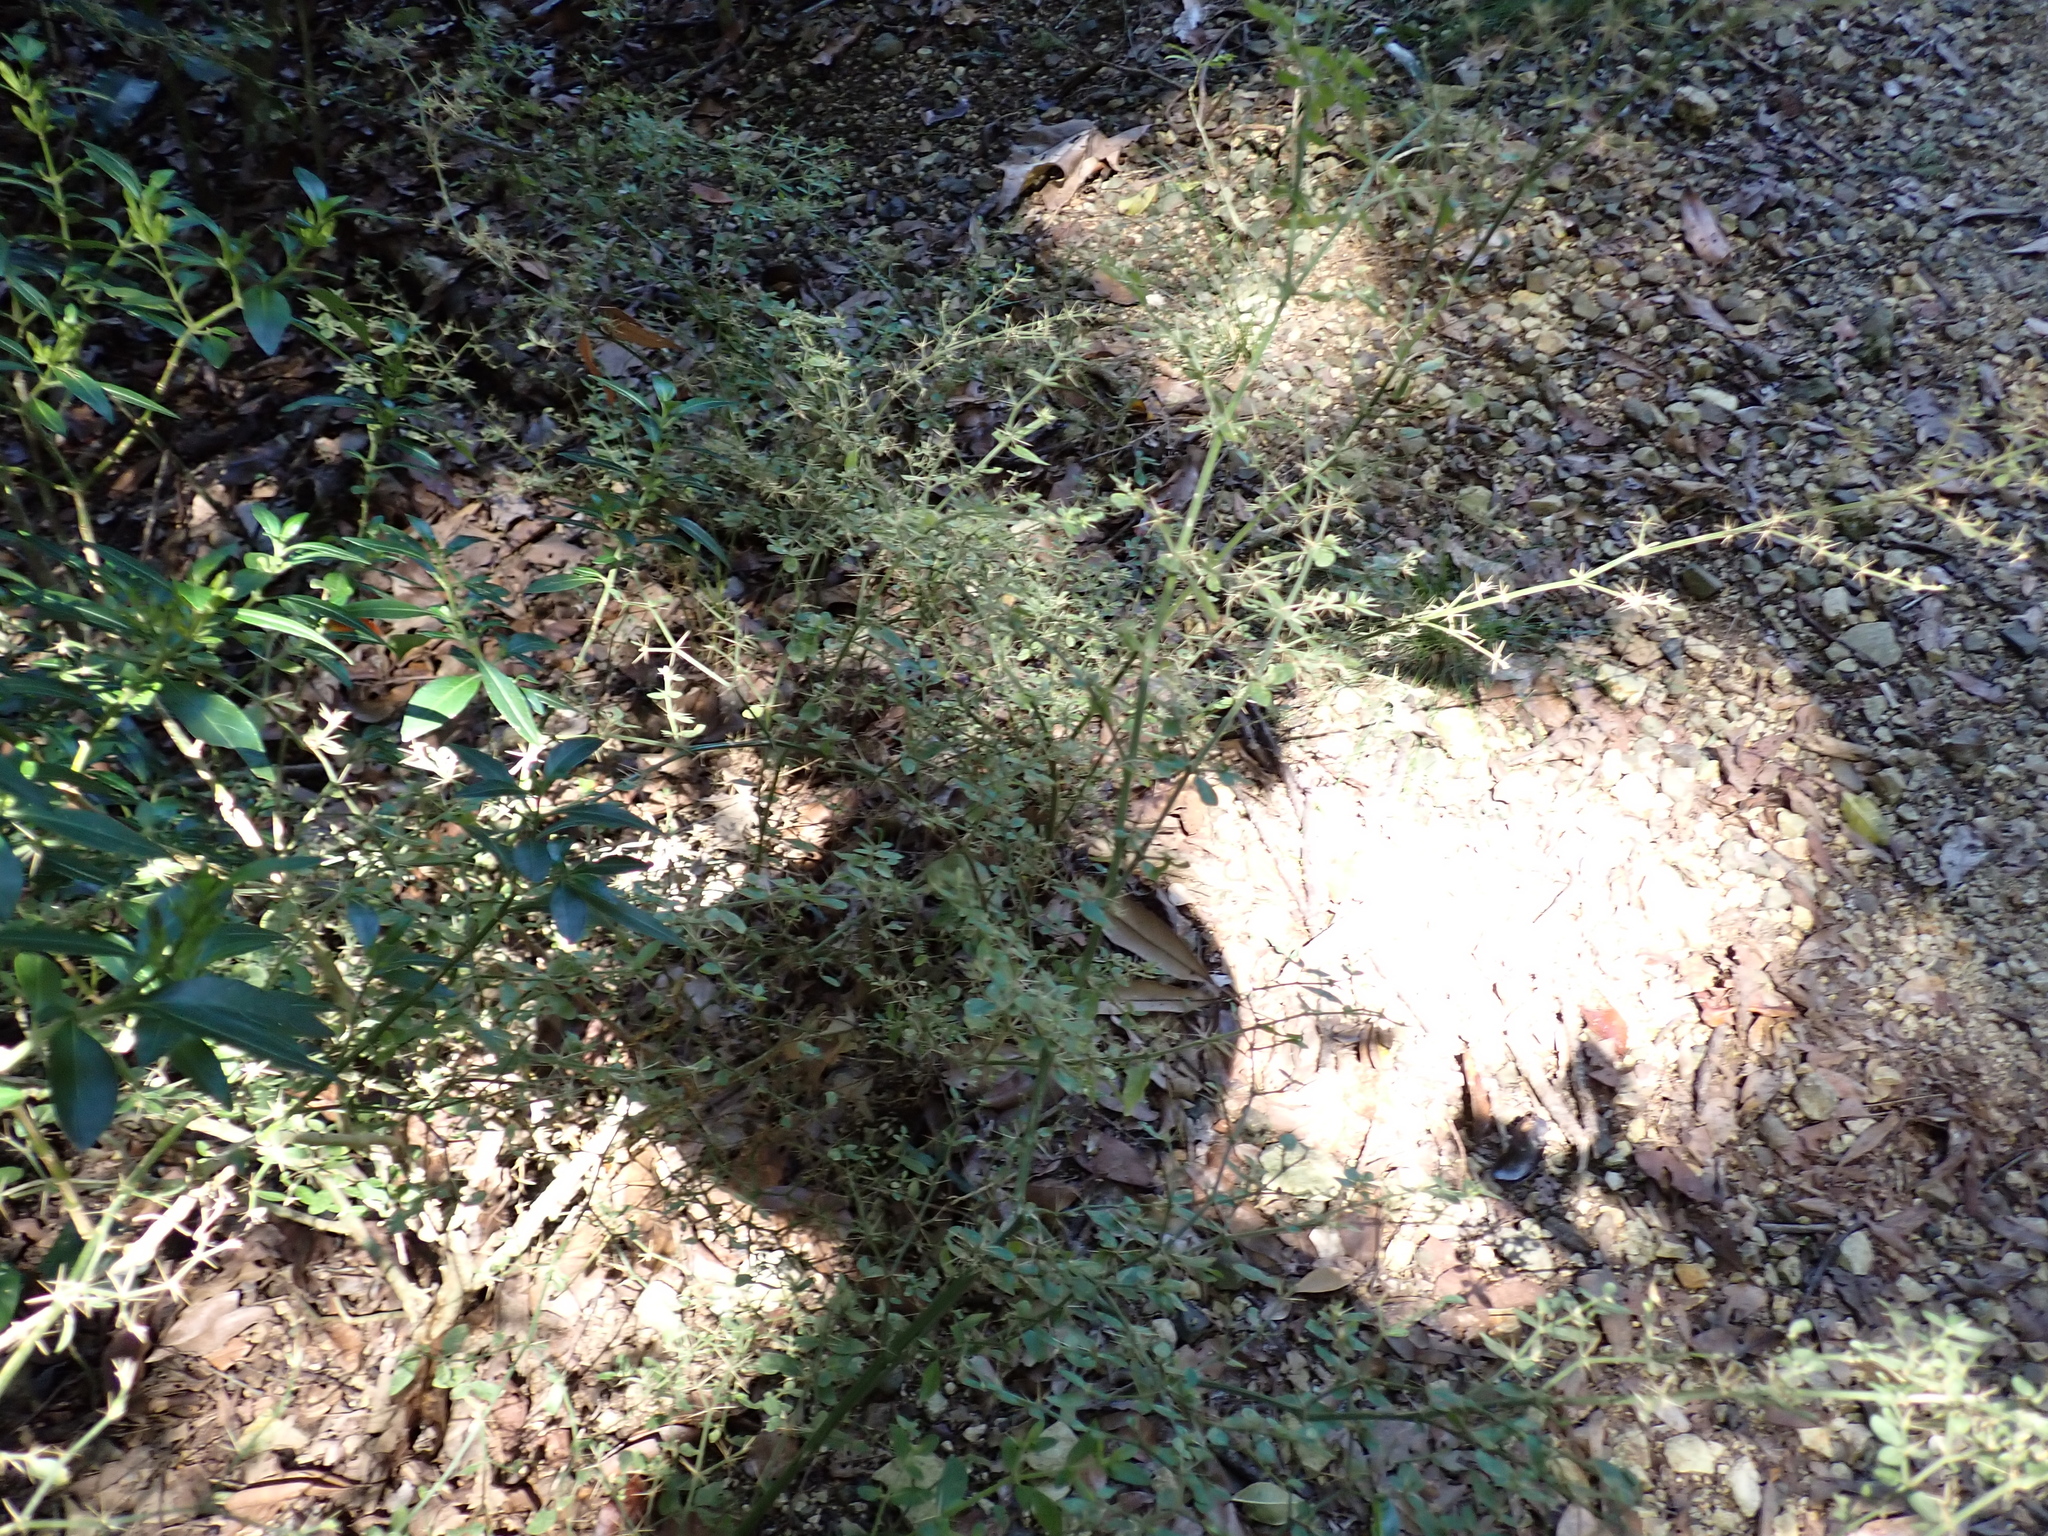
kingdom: Plantae
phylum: Tracheophyta
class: Magnoliopsida
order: Caryophyllales
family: Amaranthaceae
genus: Nyssanthes
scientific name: Nyssanthes diffusa
